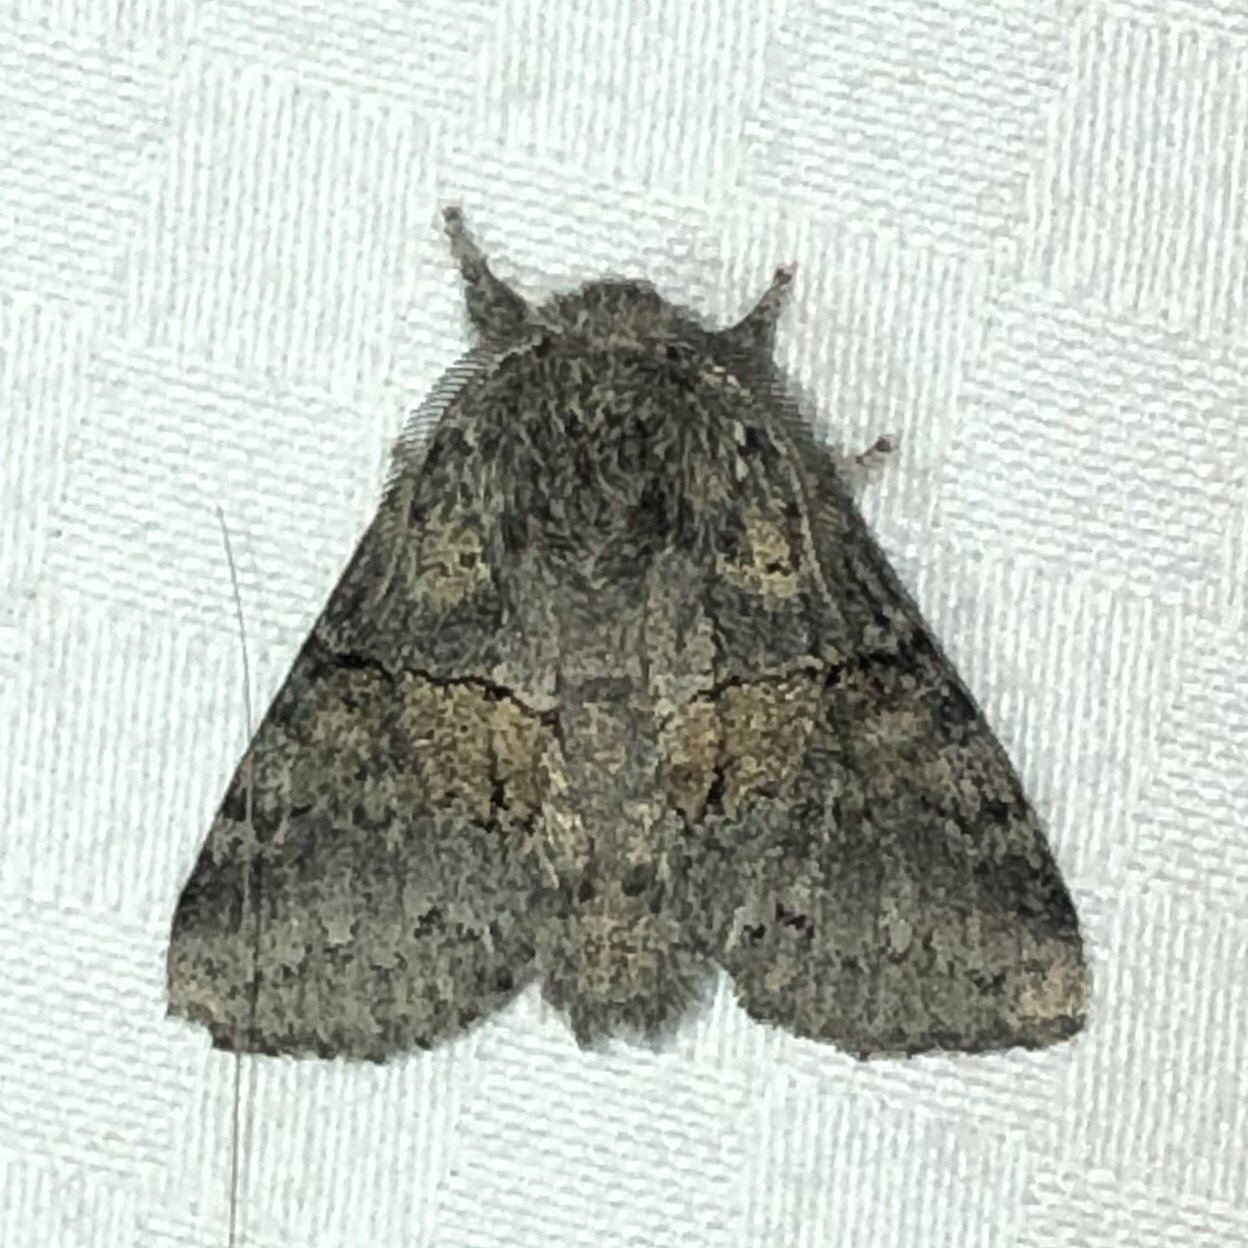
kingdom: Animalia
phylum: Arthropoda
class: Insecta
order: Lepidoptera
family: Notodontidae
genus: Gluphisia
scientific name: Gluphisia septentrionis
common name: Common gluphisia
